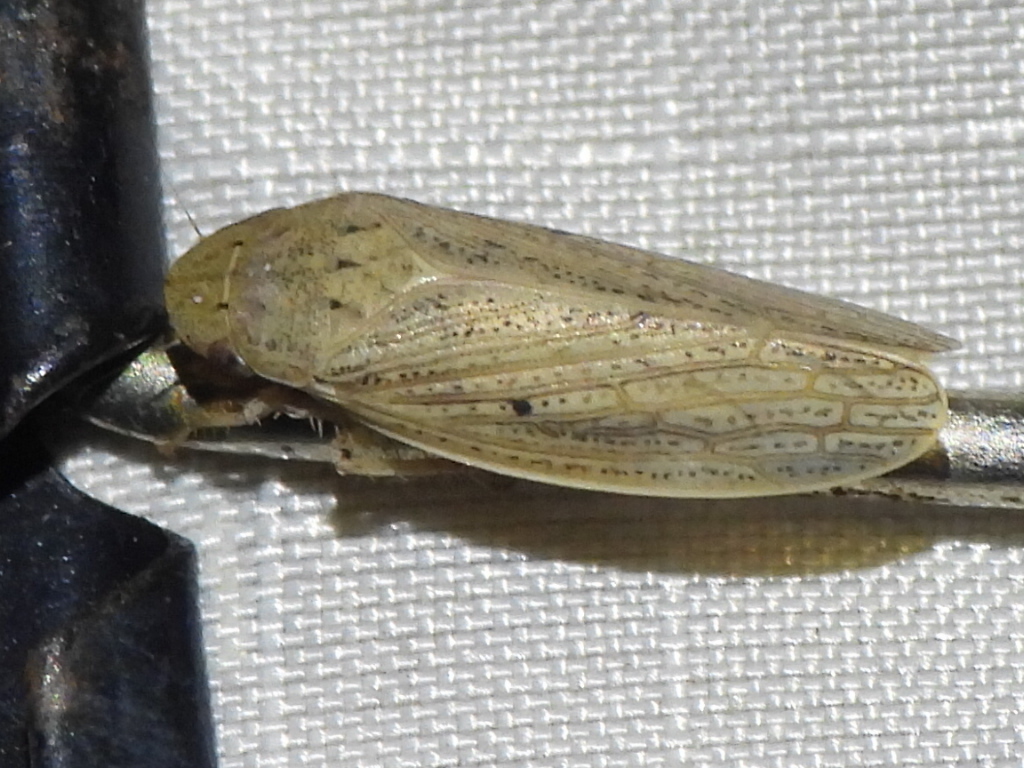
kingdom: Animalia
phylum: Arthropoda
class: Insecta
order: Hemiptera
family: Cicadellidae
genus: Negosiana
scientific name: Negosiana fraterna
